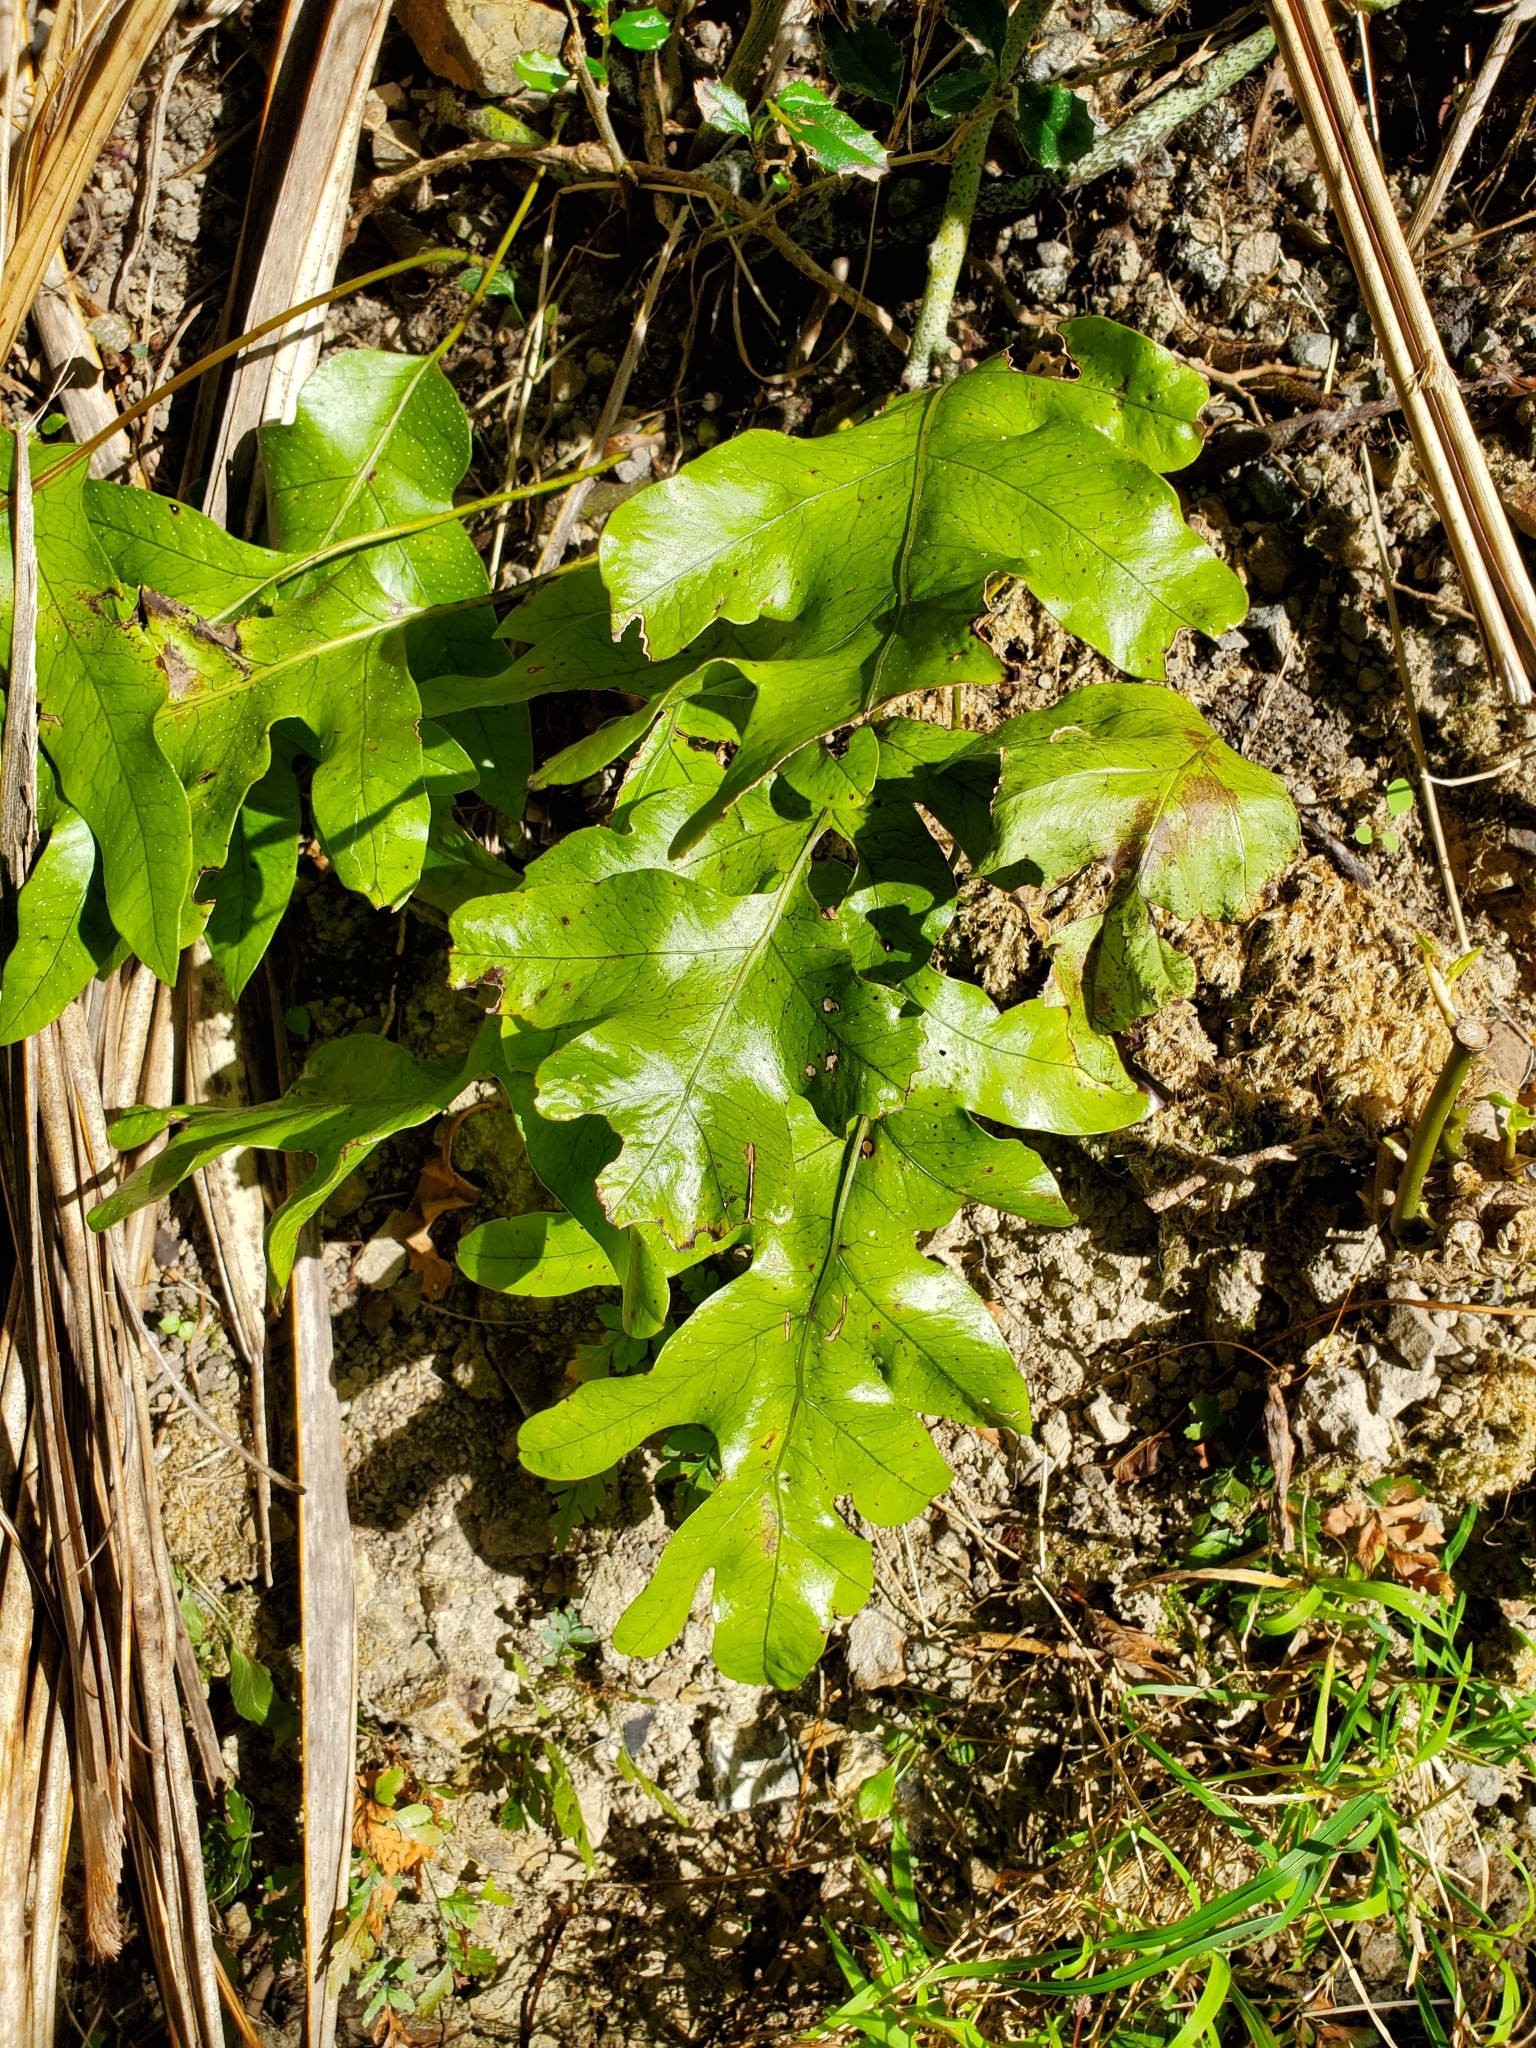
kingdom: Plantae
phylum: Tracheophyta
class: Polypodiopsida
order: Polypodiales
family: Polypodiaceae
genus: Lecanopteris
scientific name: Lecanopteris pustulata
